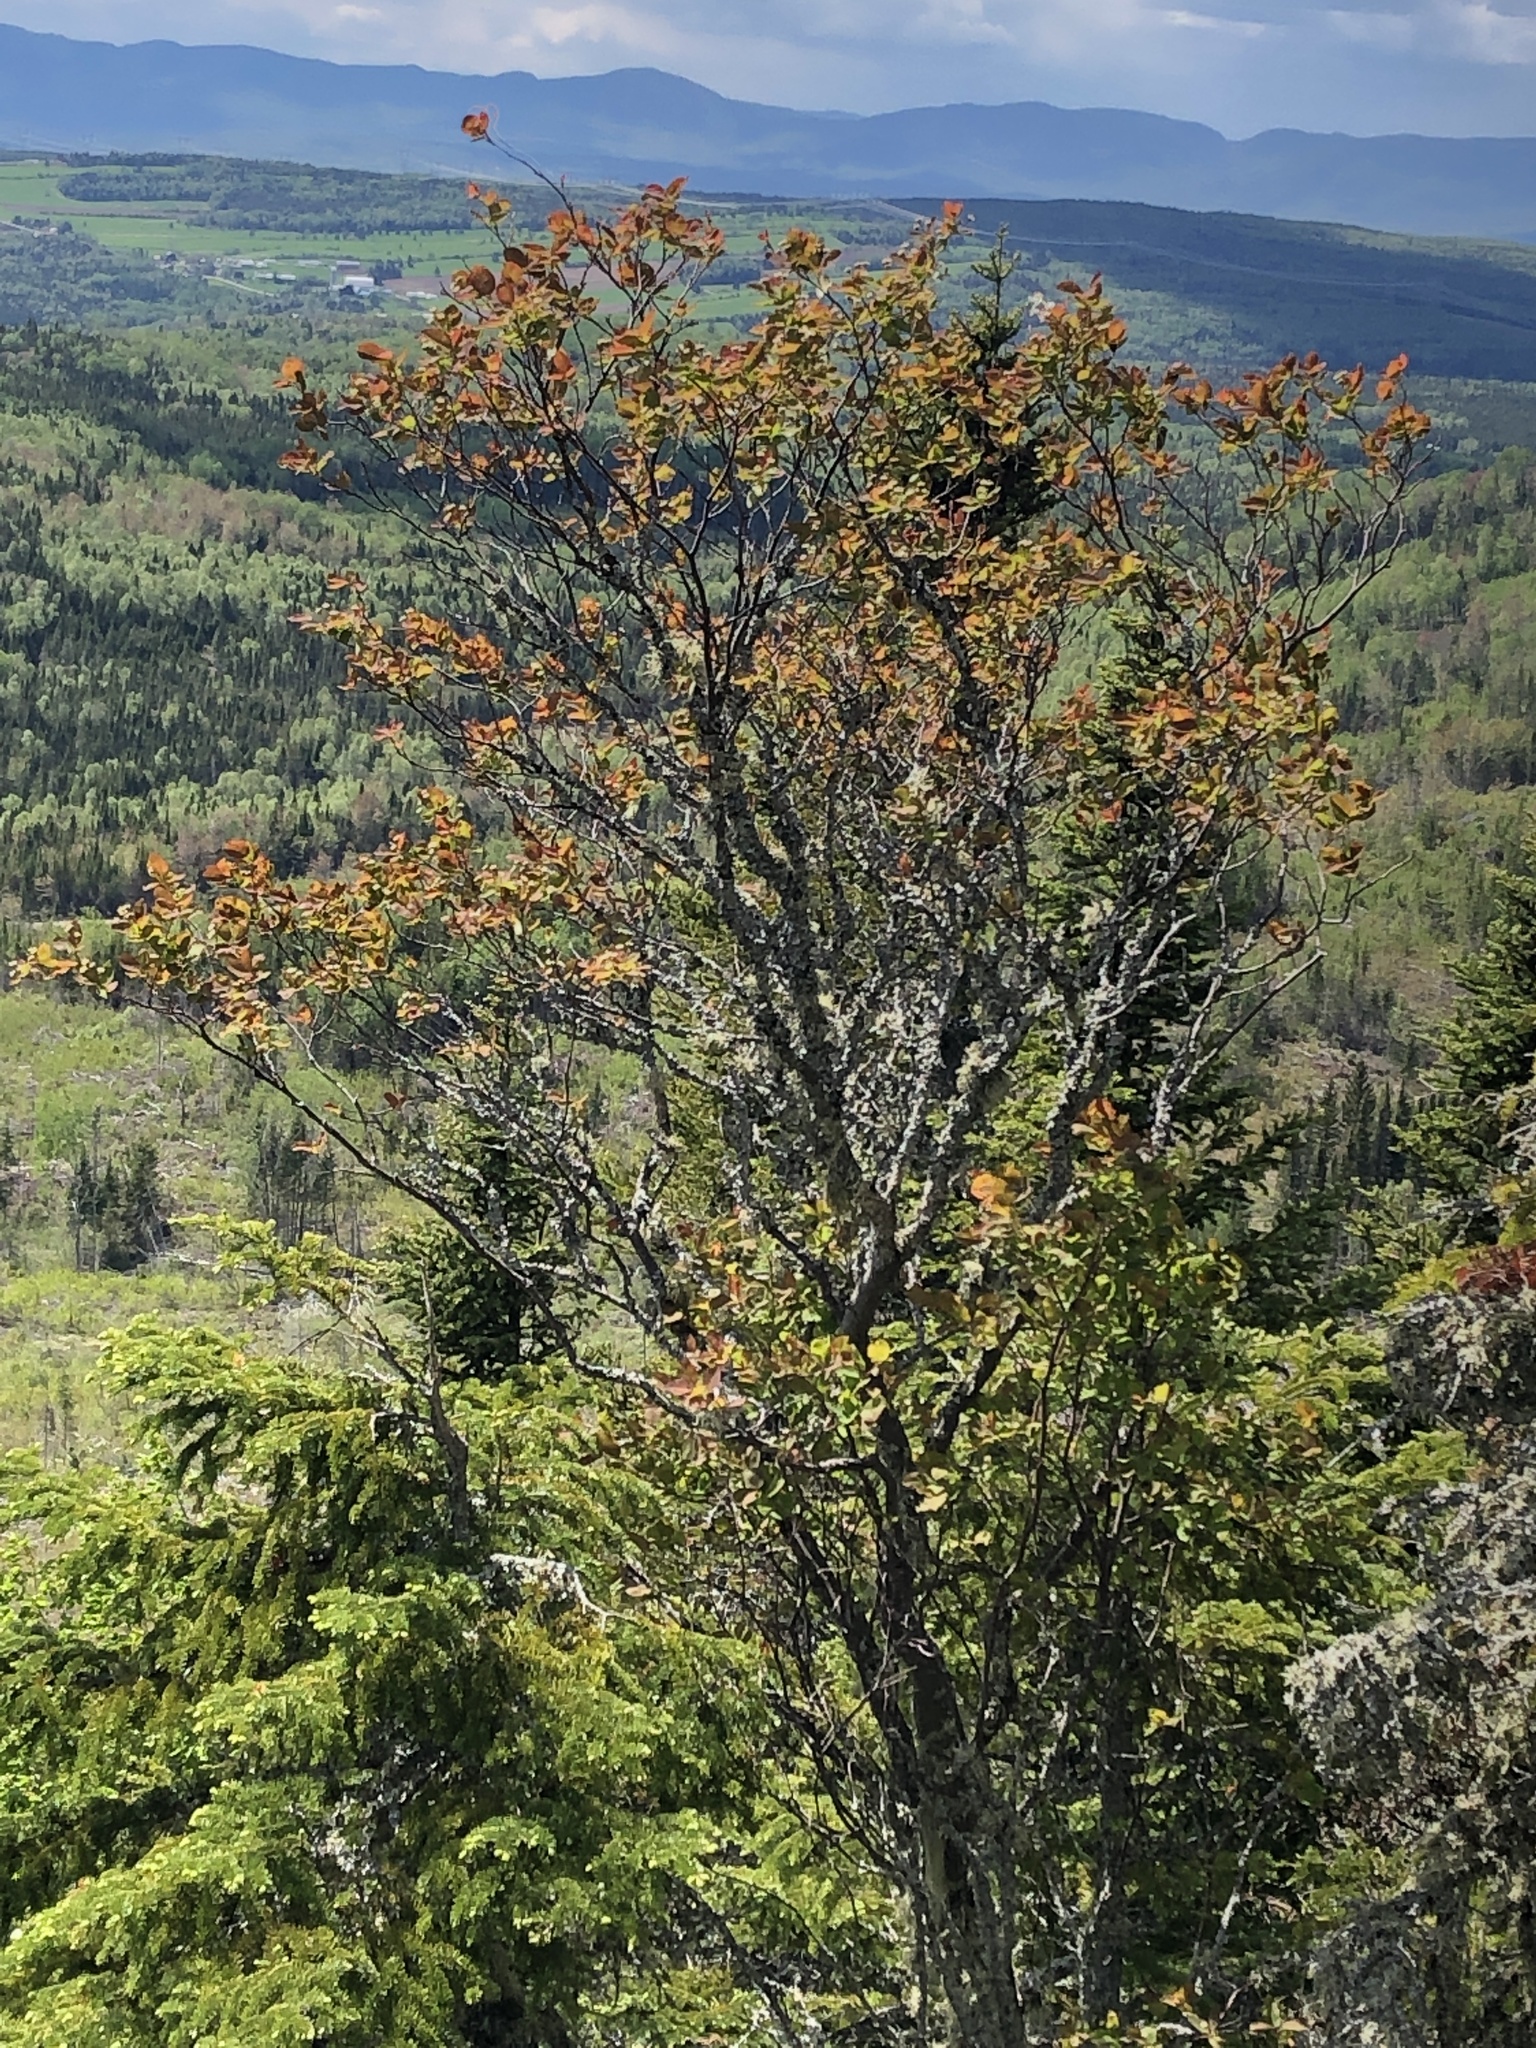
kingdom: Plantae
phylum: Tracheophyta
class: Magnoliopsida
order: Rosales
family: Rosaceae
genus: Amelanchier
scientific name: Amelanchier bartramiana
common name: Mountain serviceberry
